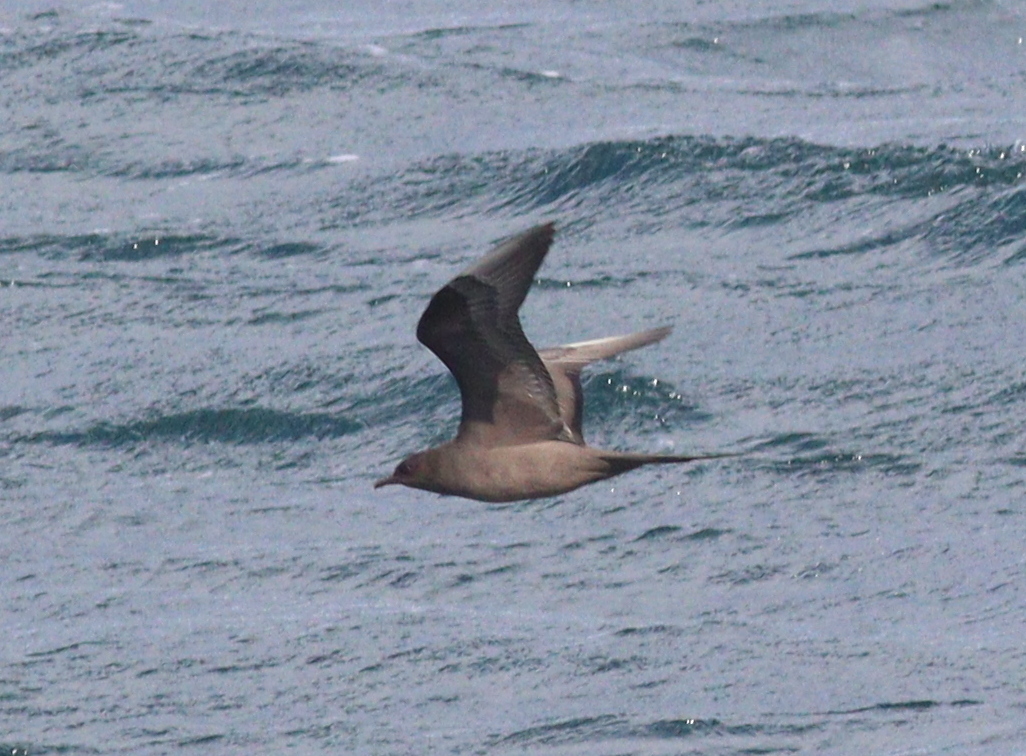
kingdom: Animalia
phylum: Chordata
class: Aves
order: Charadriiformes
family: Stercorariidae
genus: Stercorarius
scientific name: Stercorarius parasiticus
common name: Parasitic jaeger
